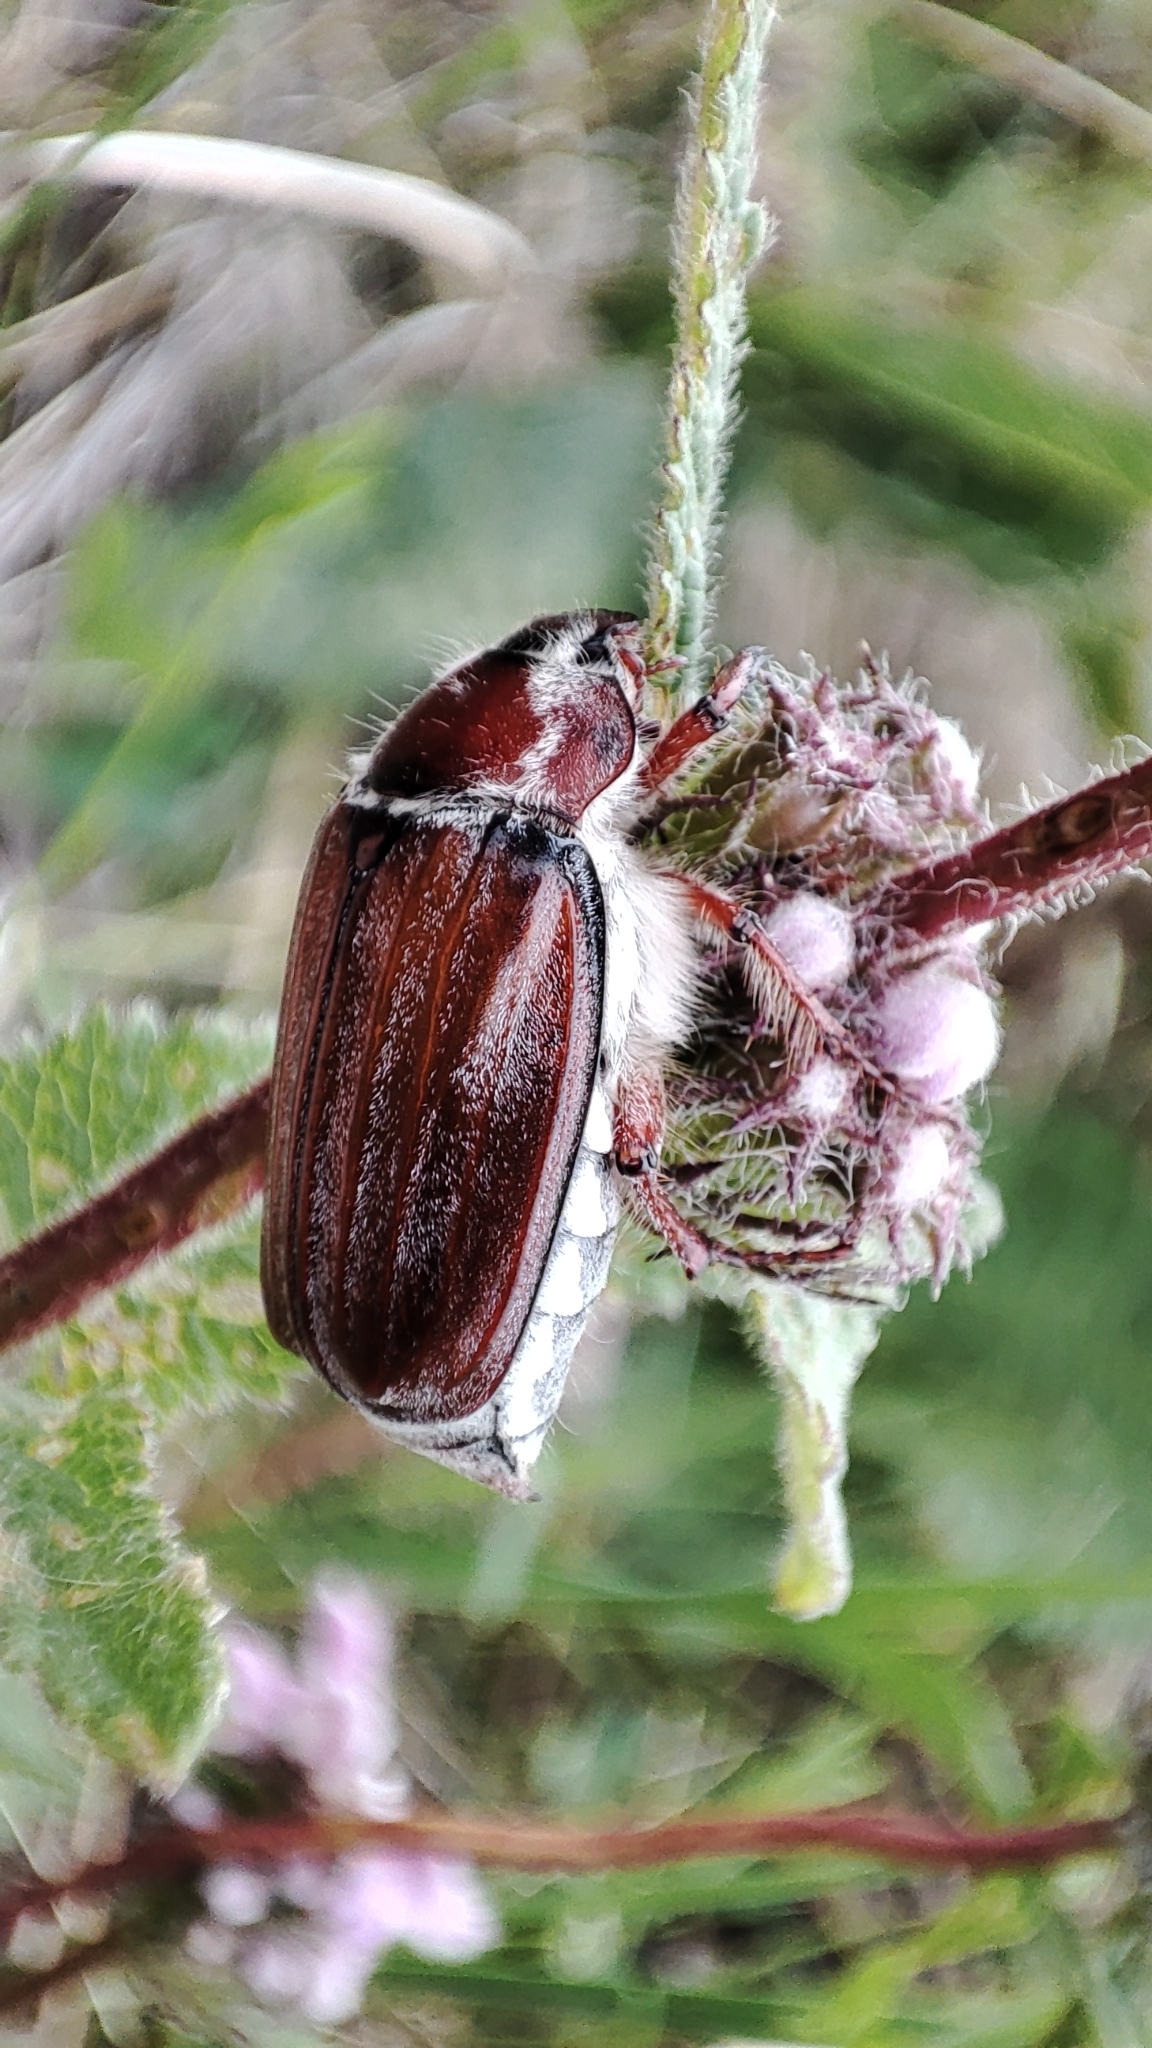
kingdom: Animalia
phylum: Arthropoda
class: Insecta
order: Coleoptera
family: Scarabaeidae
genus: Melolontha
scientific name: Melolontha hippocastani
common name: Chestnut cockchafer
